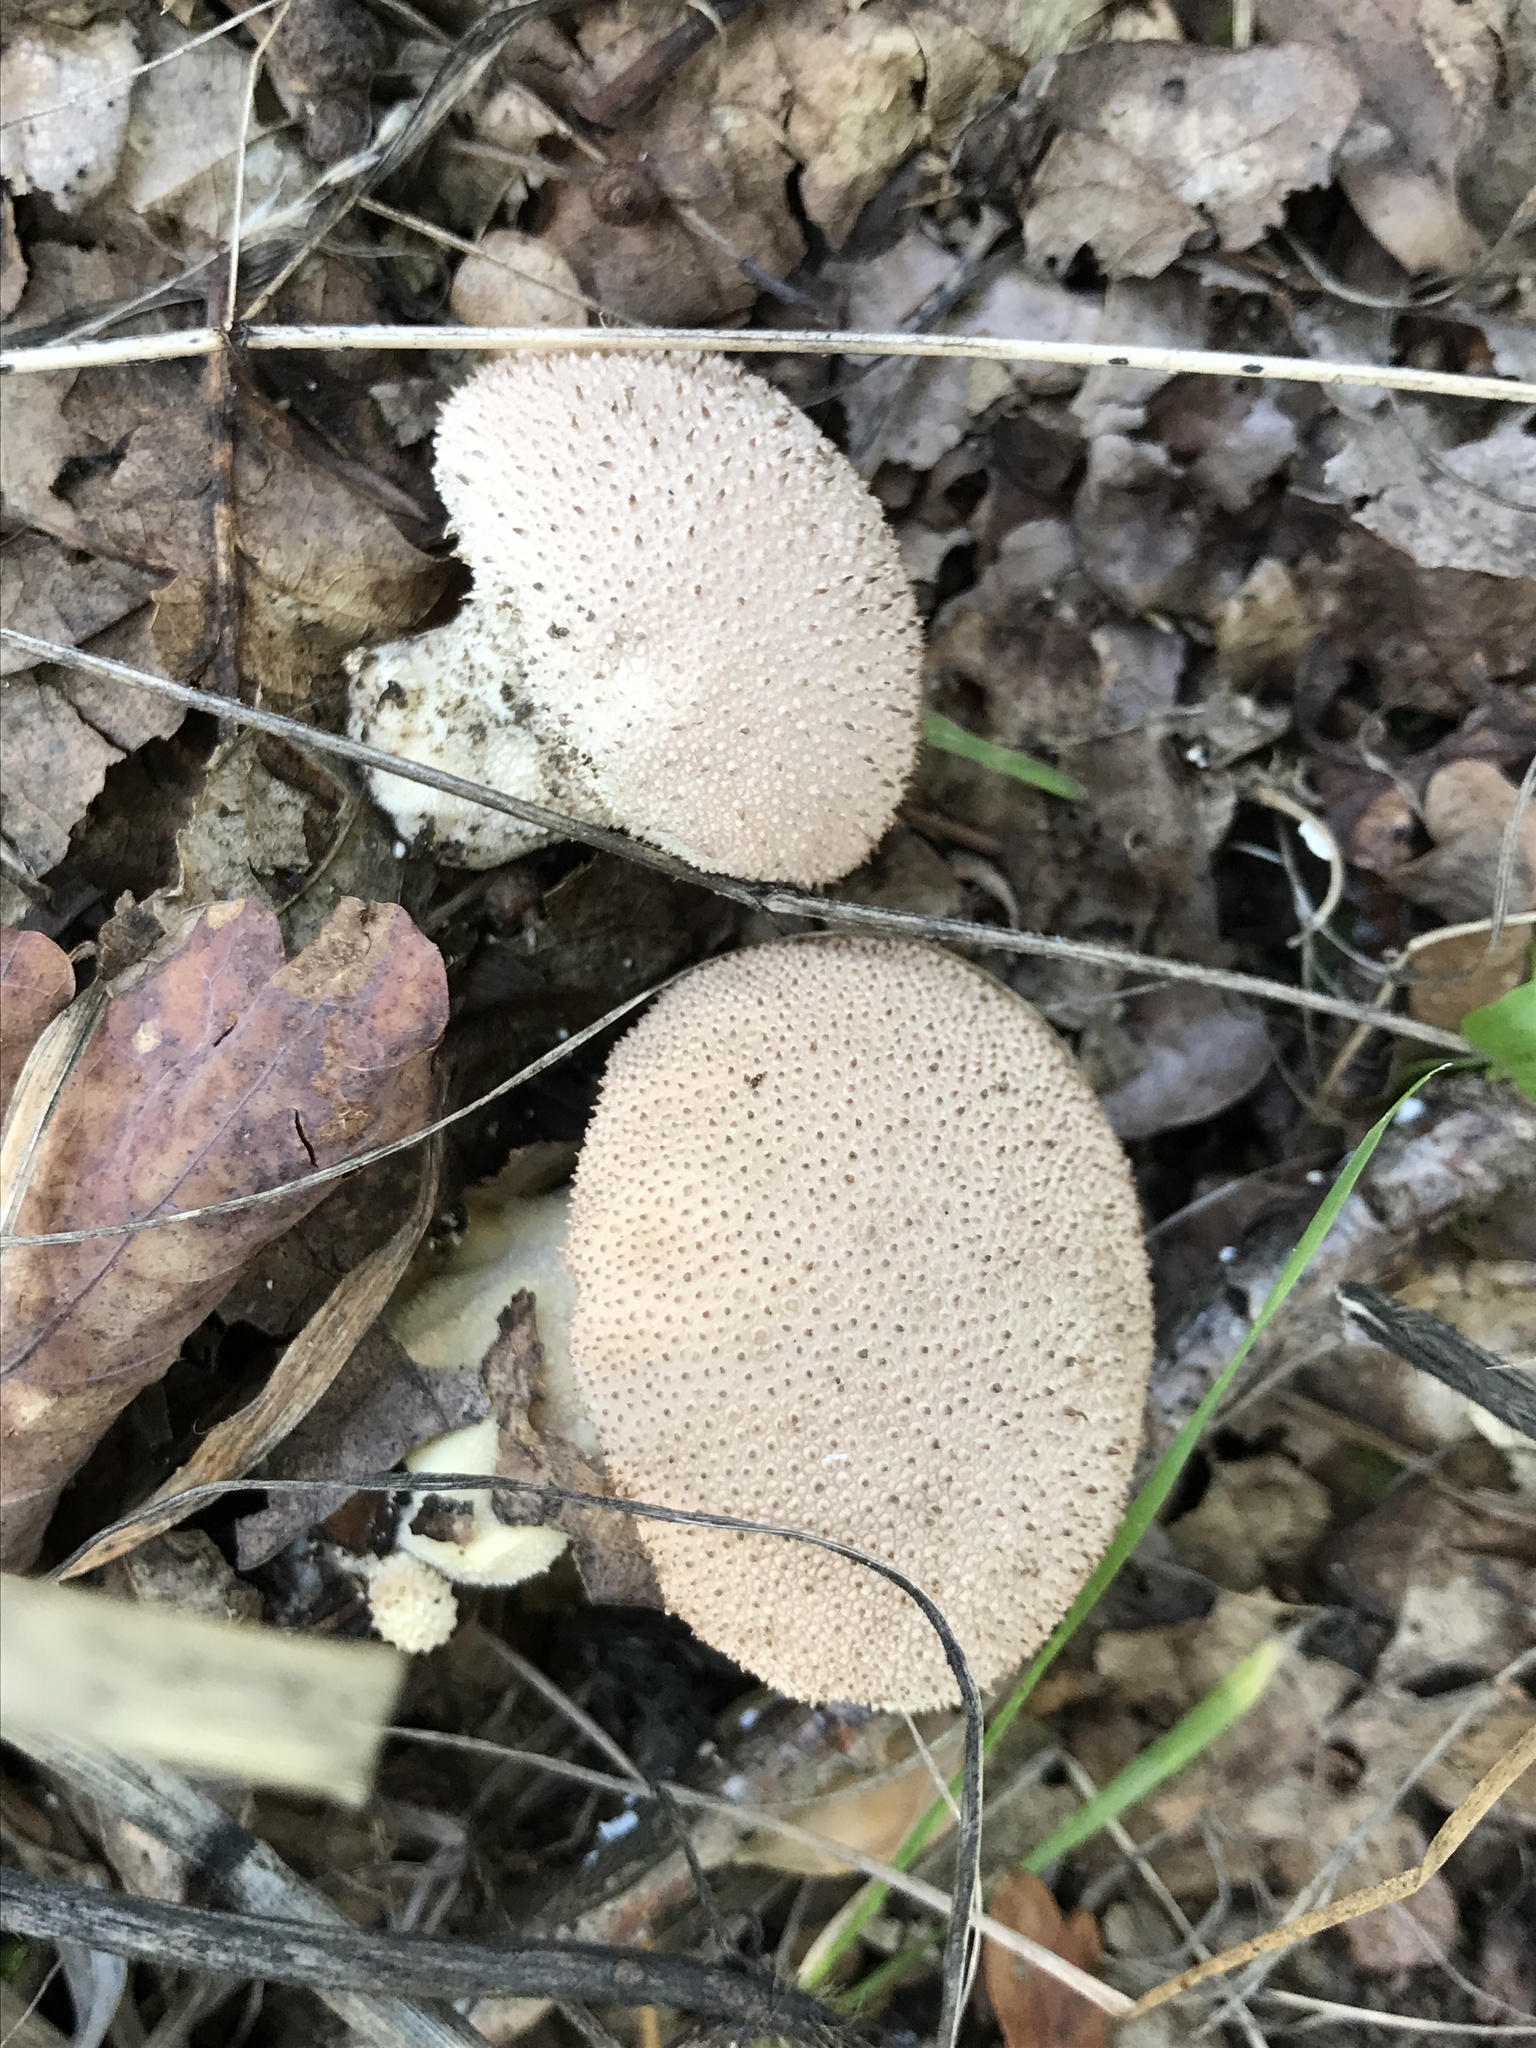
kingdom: Fungi
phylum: Basidiomycota
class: Agaricomycetes
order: Agaricales
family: Lycoperdaceae
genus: Lycoperdon
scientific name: Lycoperdon perlatum
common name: Common puffball
